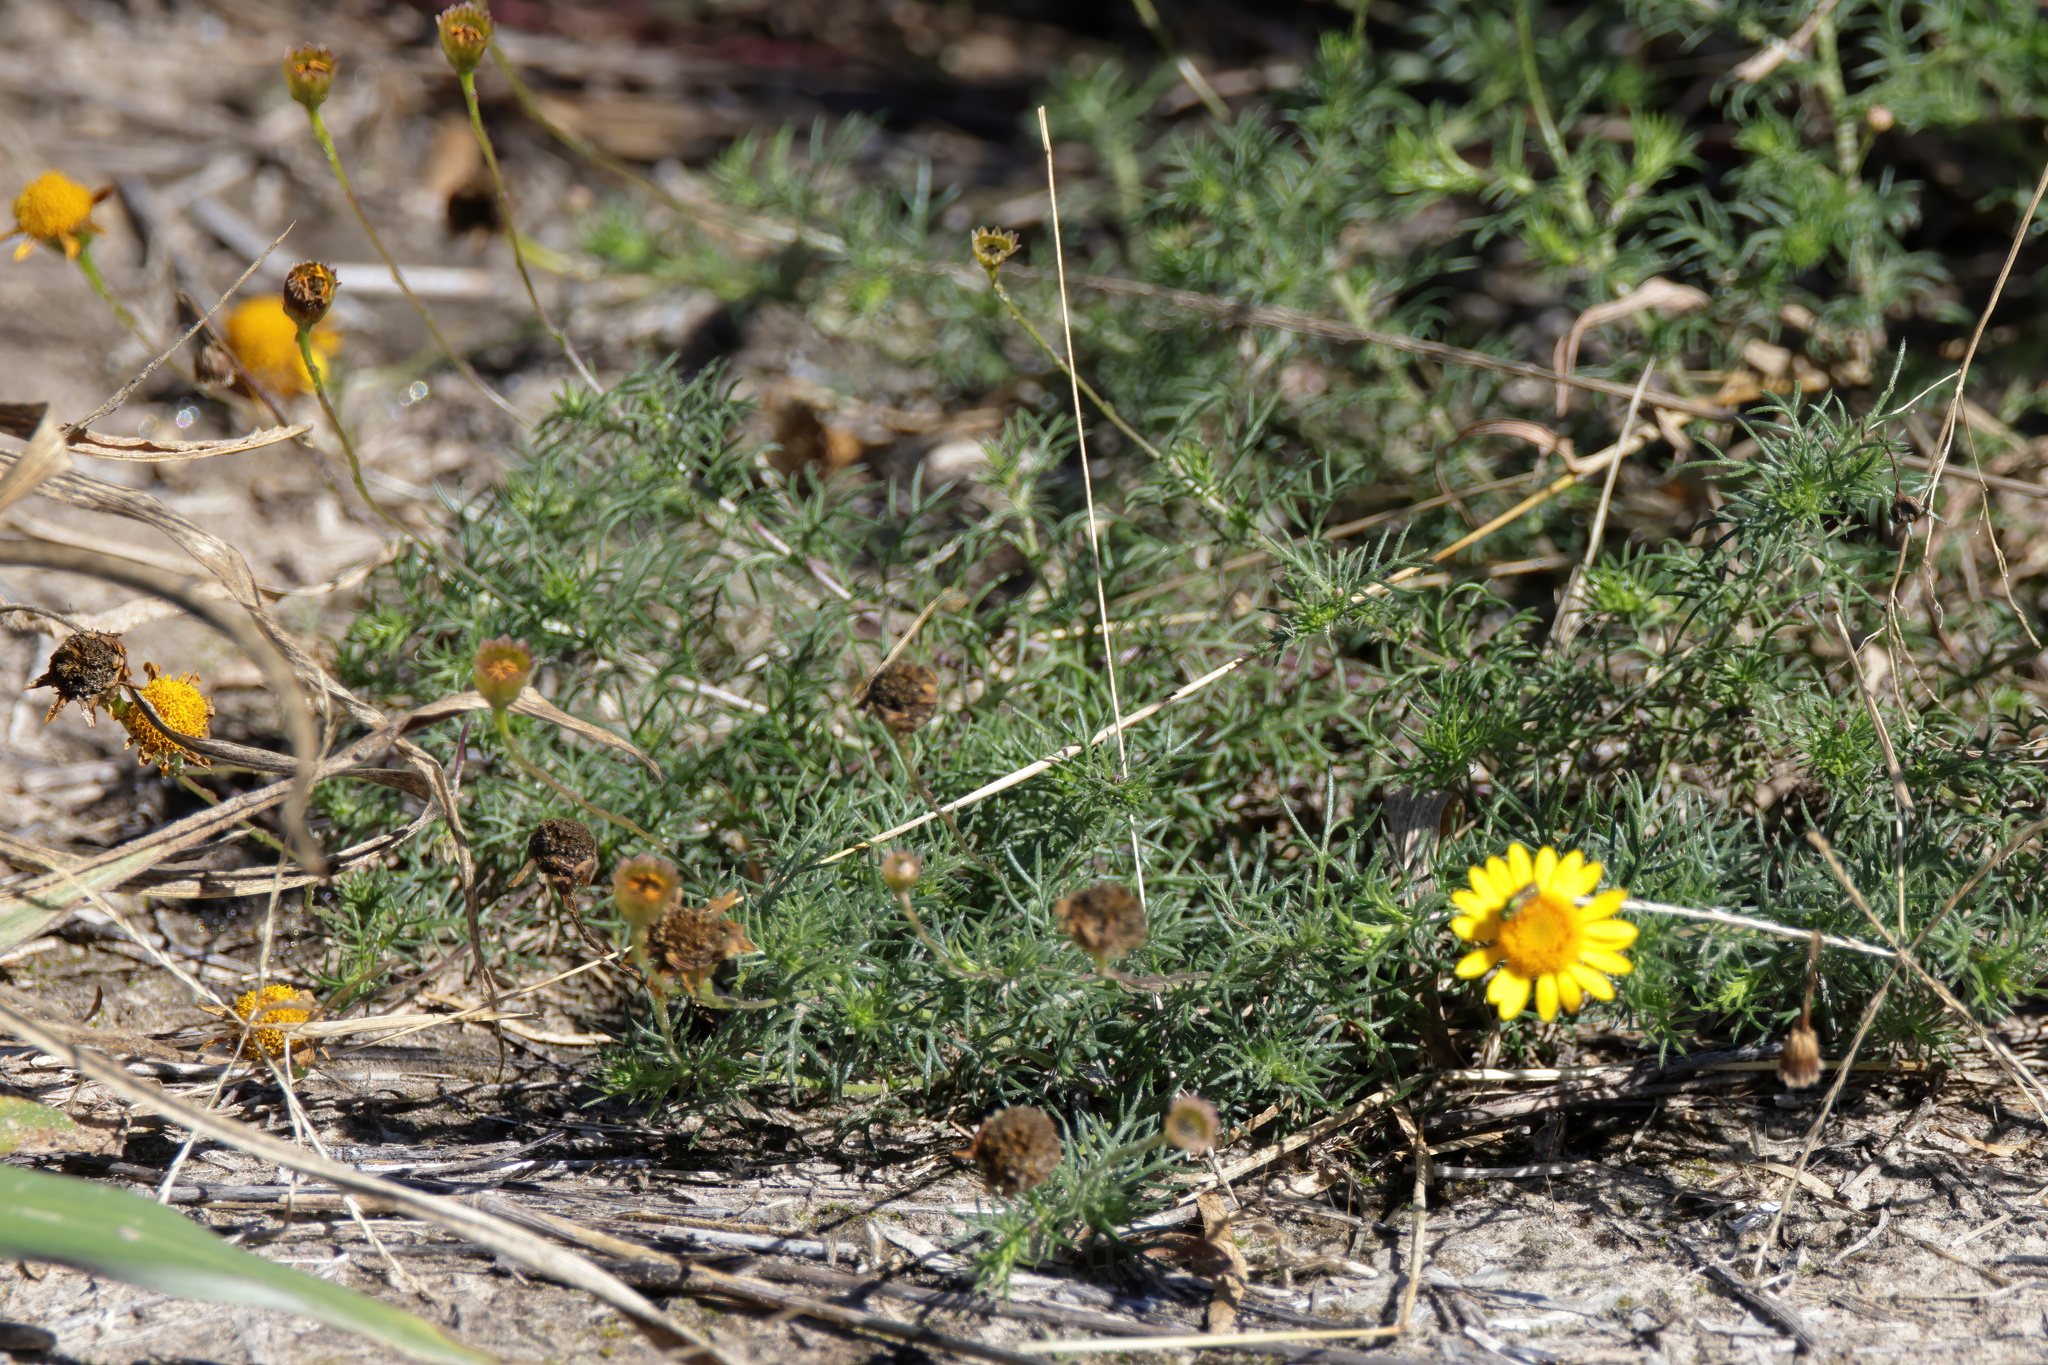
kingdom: Plantae
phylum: Tracheophyta
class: Magnoliopsida
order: Asterales
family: Asteraceae
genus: Thymophylla
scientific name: Thymophylla tenuiloba
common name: Dahlberg's daisy
